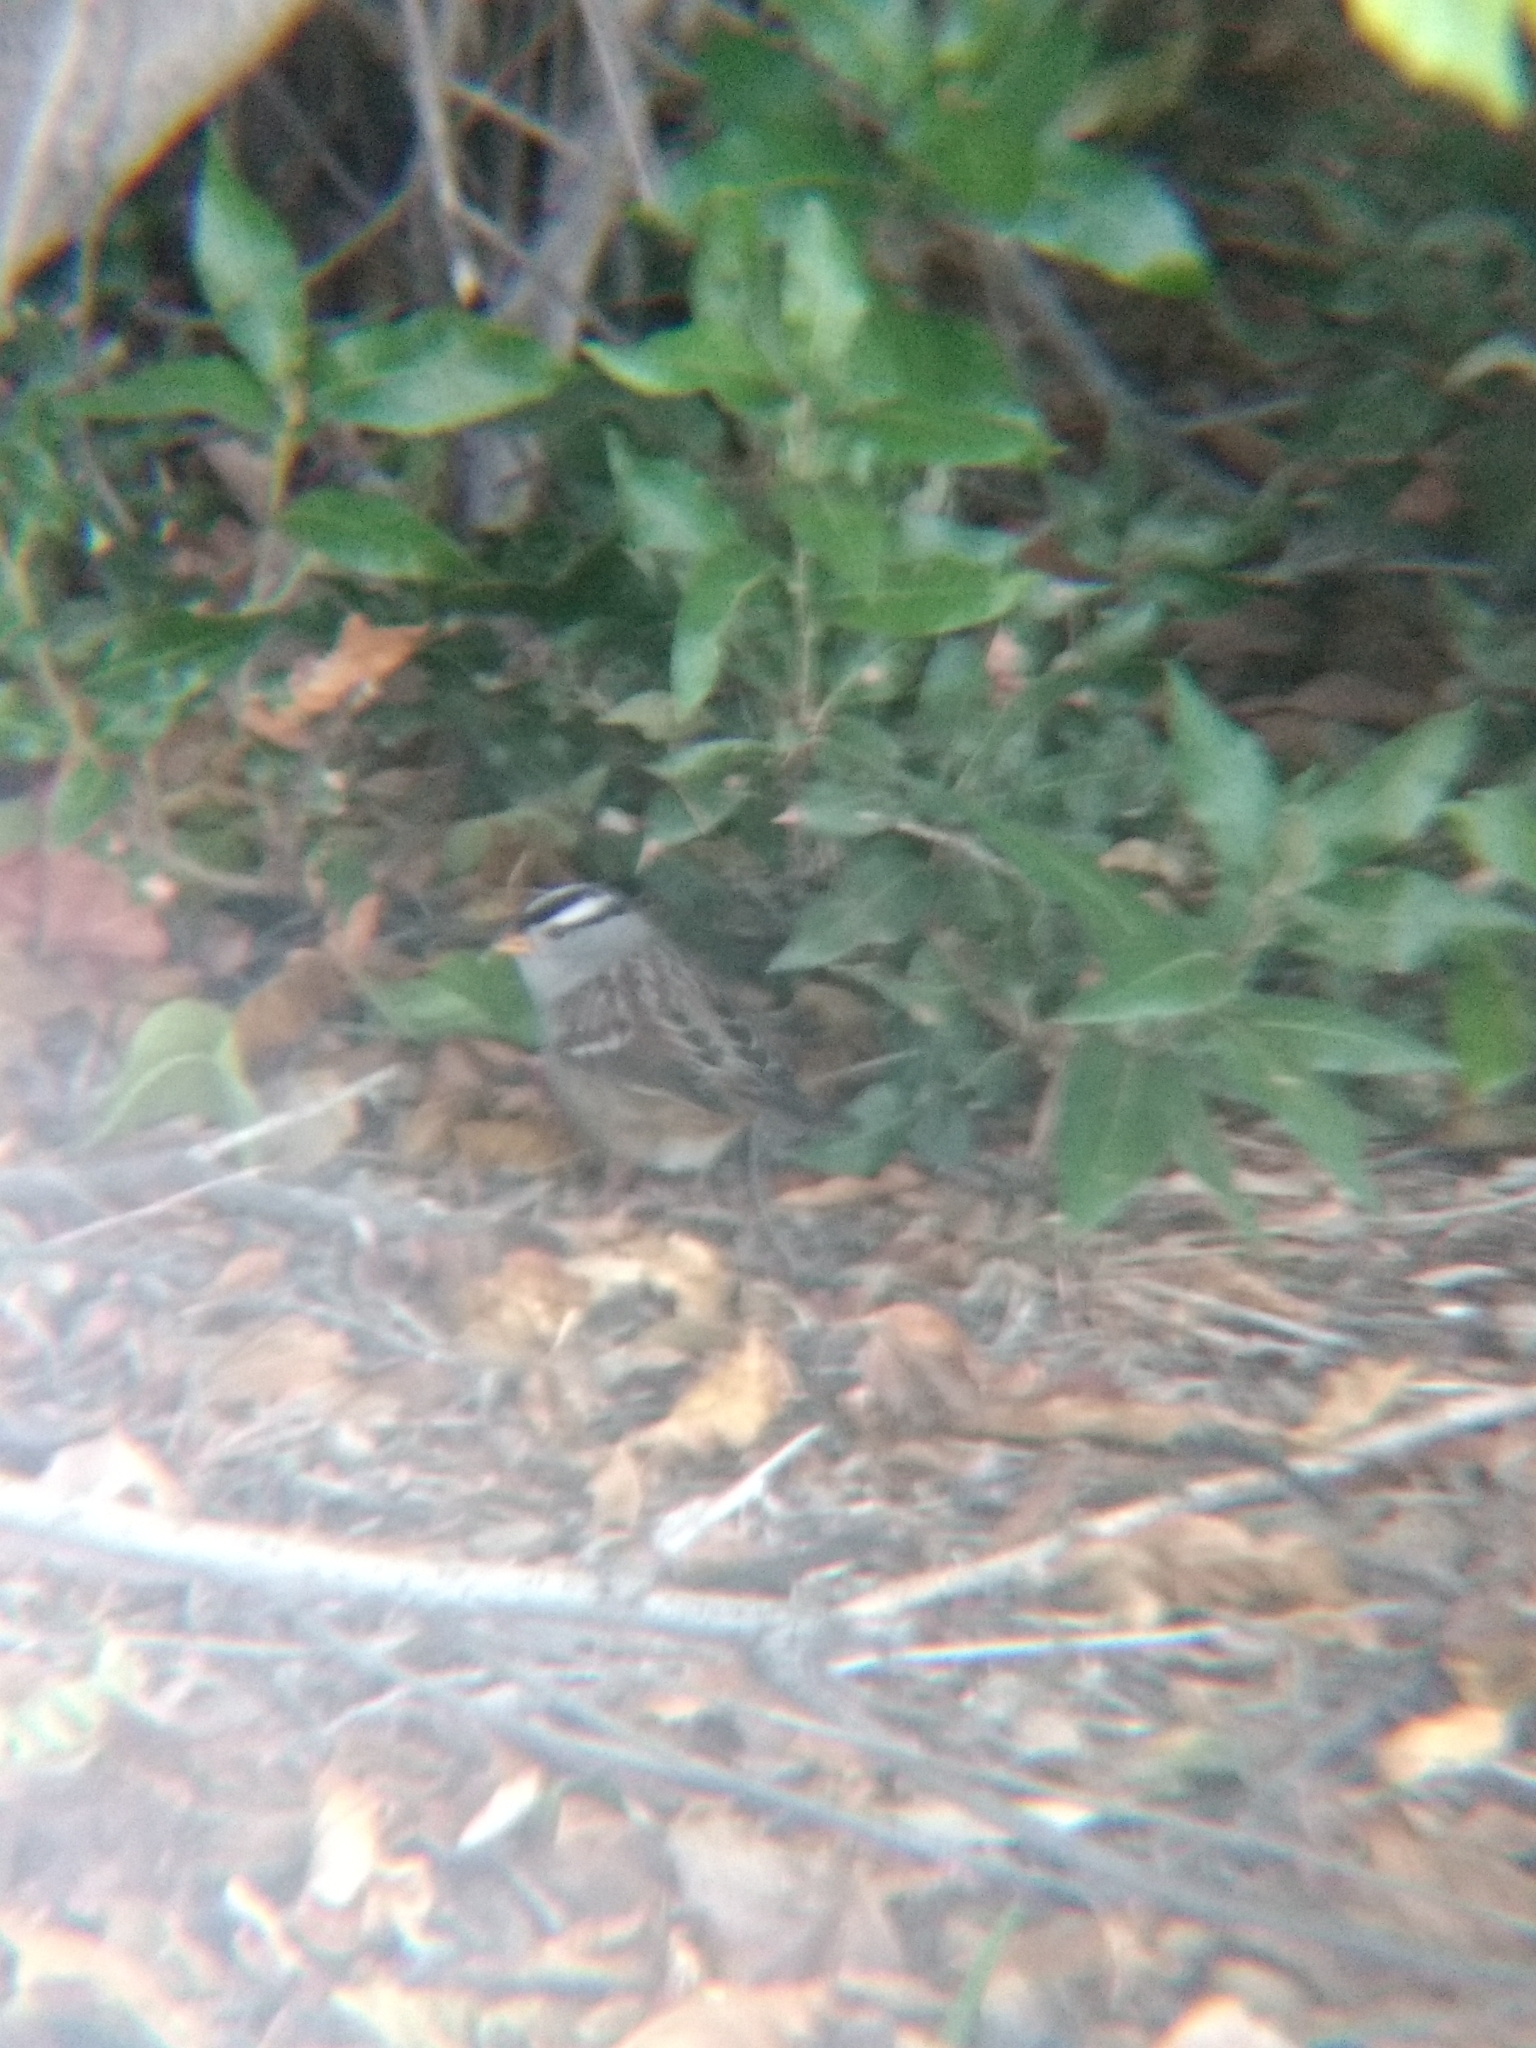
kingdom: Animalia
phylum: Chordata
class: Aves
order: Passeriformes
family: Passerellidae
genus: Zonotrichia
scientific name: Zonotrichia leucophrys
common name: White-crowned sparrow
